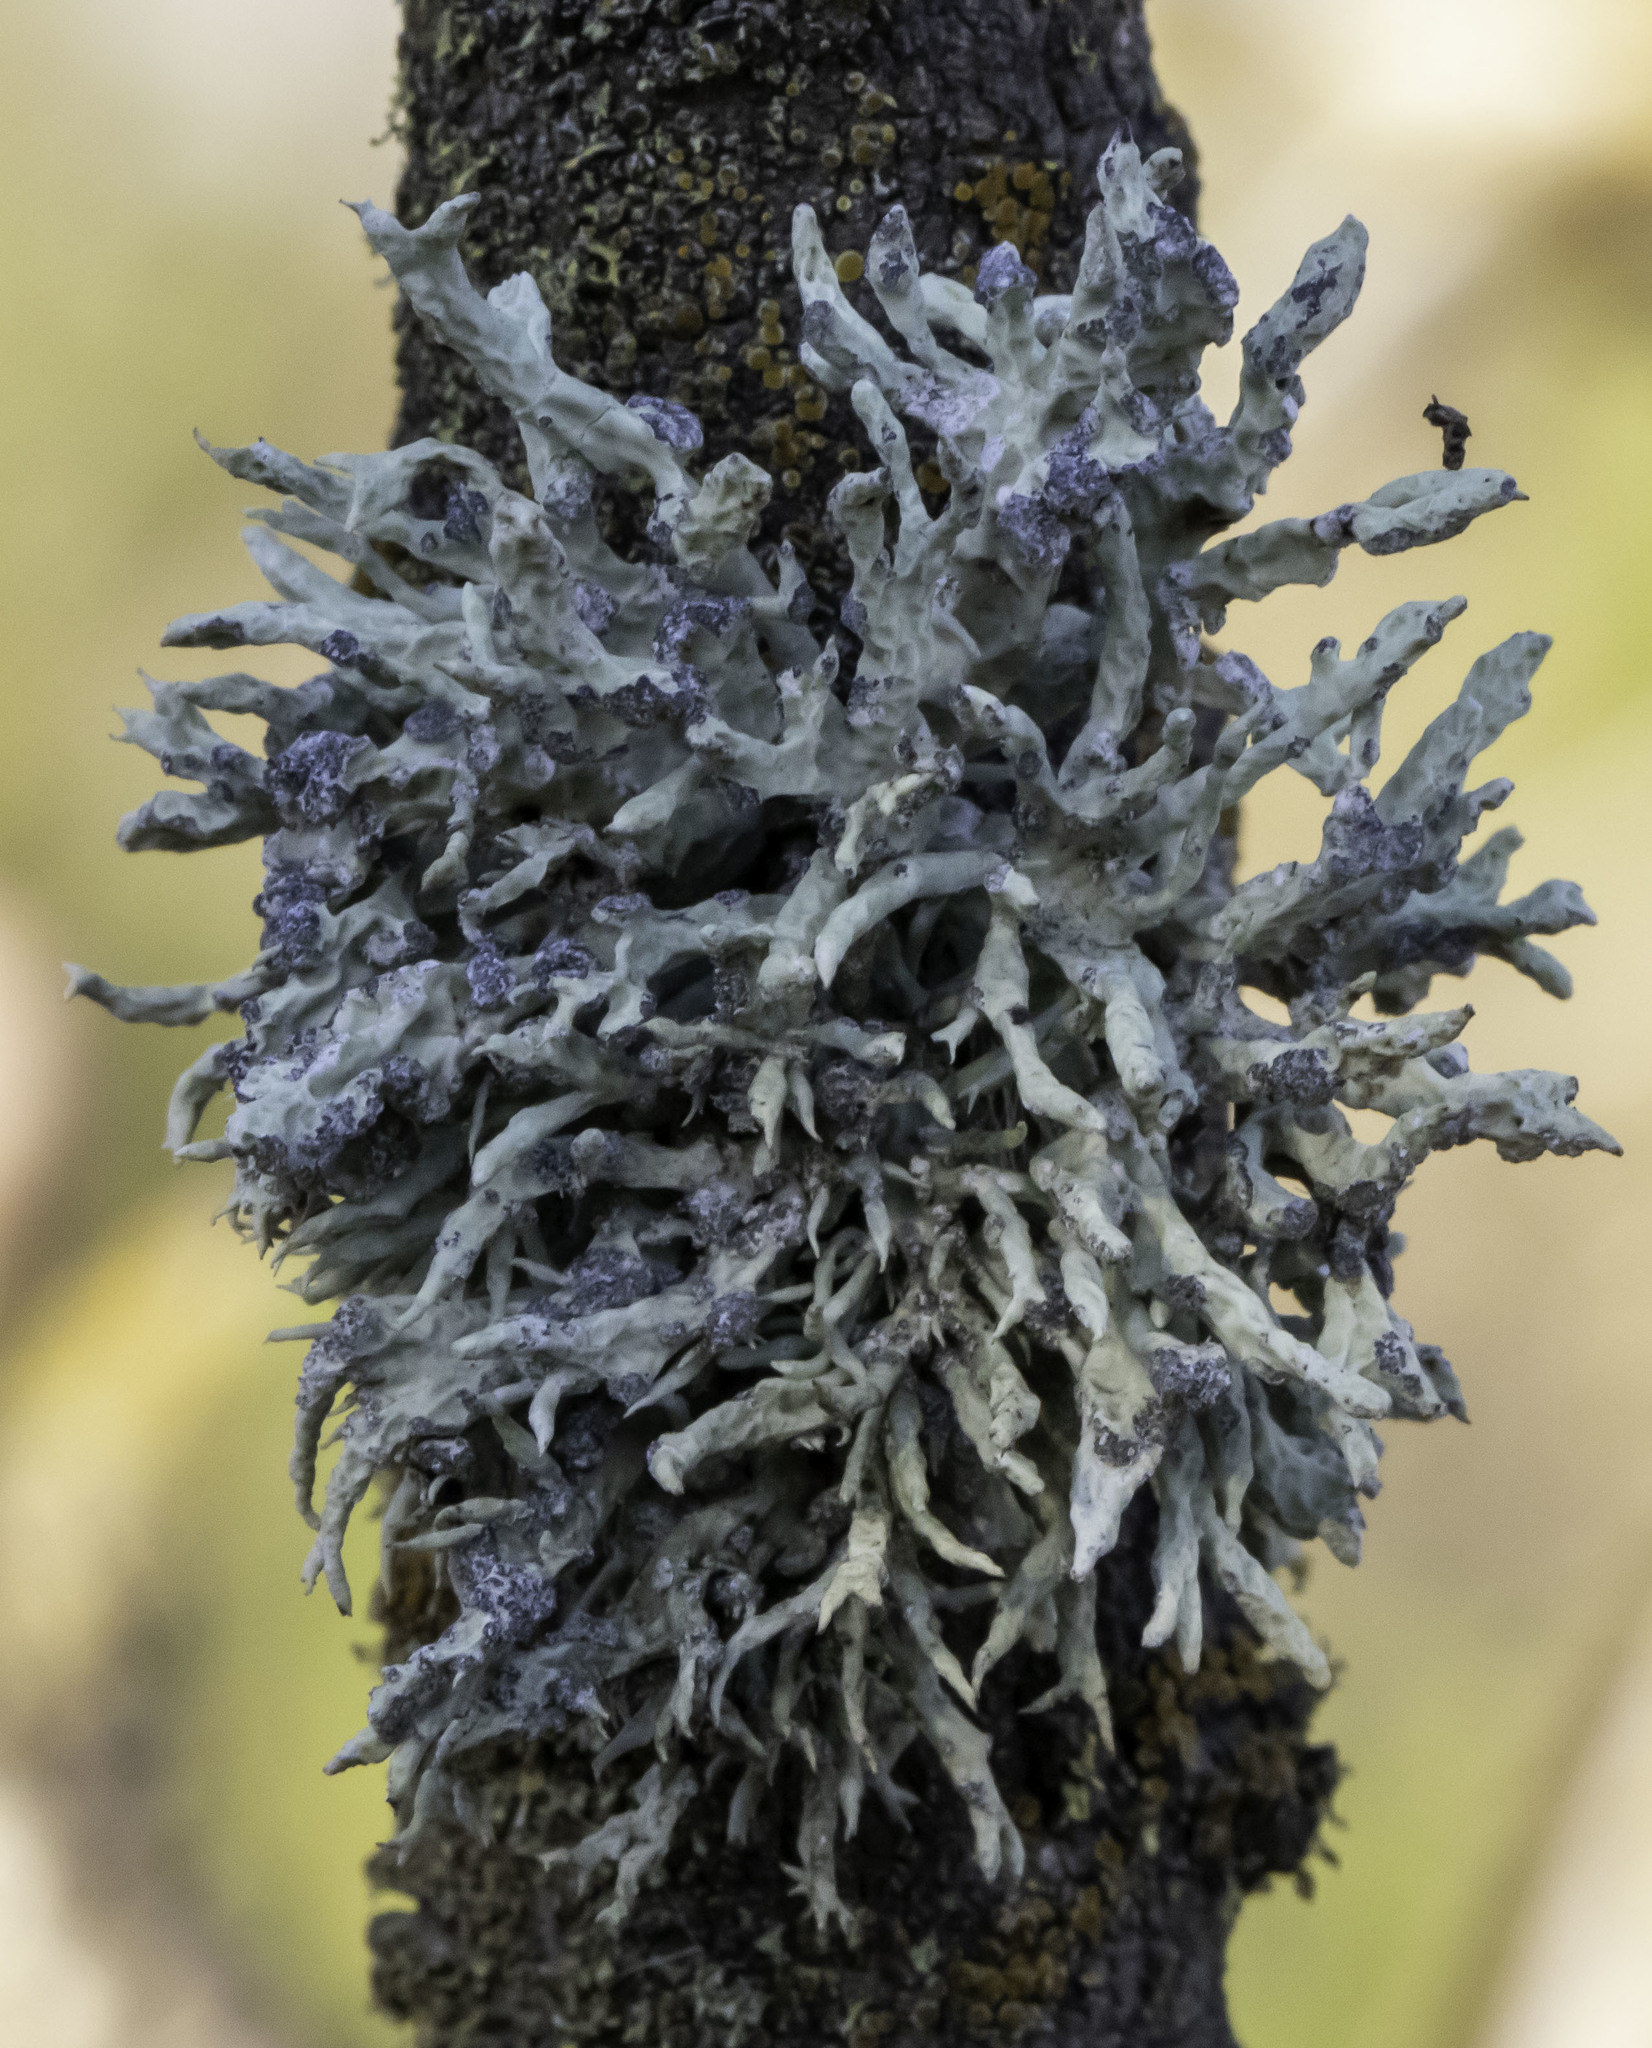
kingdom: Fungi
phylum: Ascomycota
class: Lecanoromycetes
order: Lecanorales
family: Ramalinaceae
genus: Niebla
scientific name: Niebla cephalota
